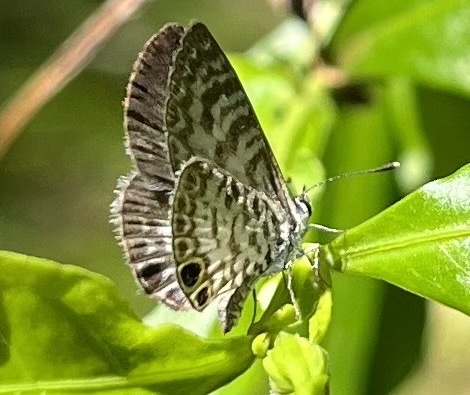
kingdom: Animalia
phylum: Arthropoda
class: Insecta
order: Lepidoptera
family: Lycaenidae
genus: Leptotes
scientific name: Leptotes cassius
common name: Cassius blue
